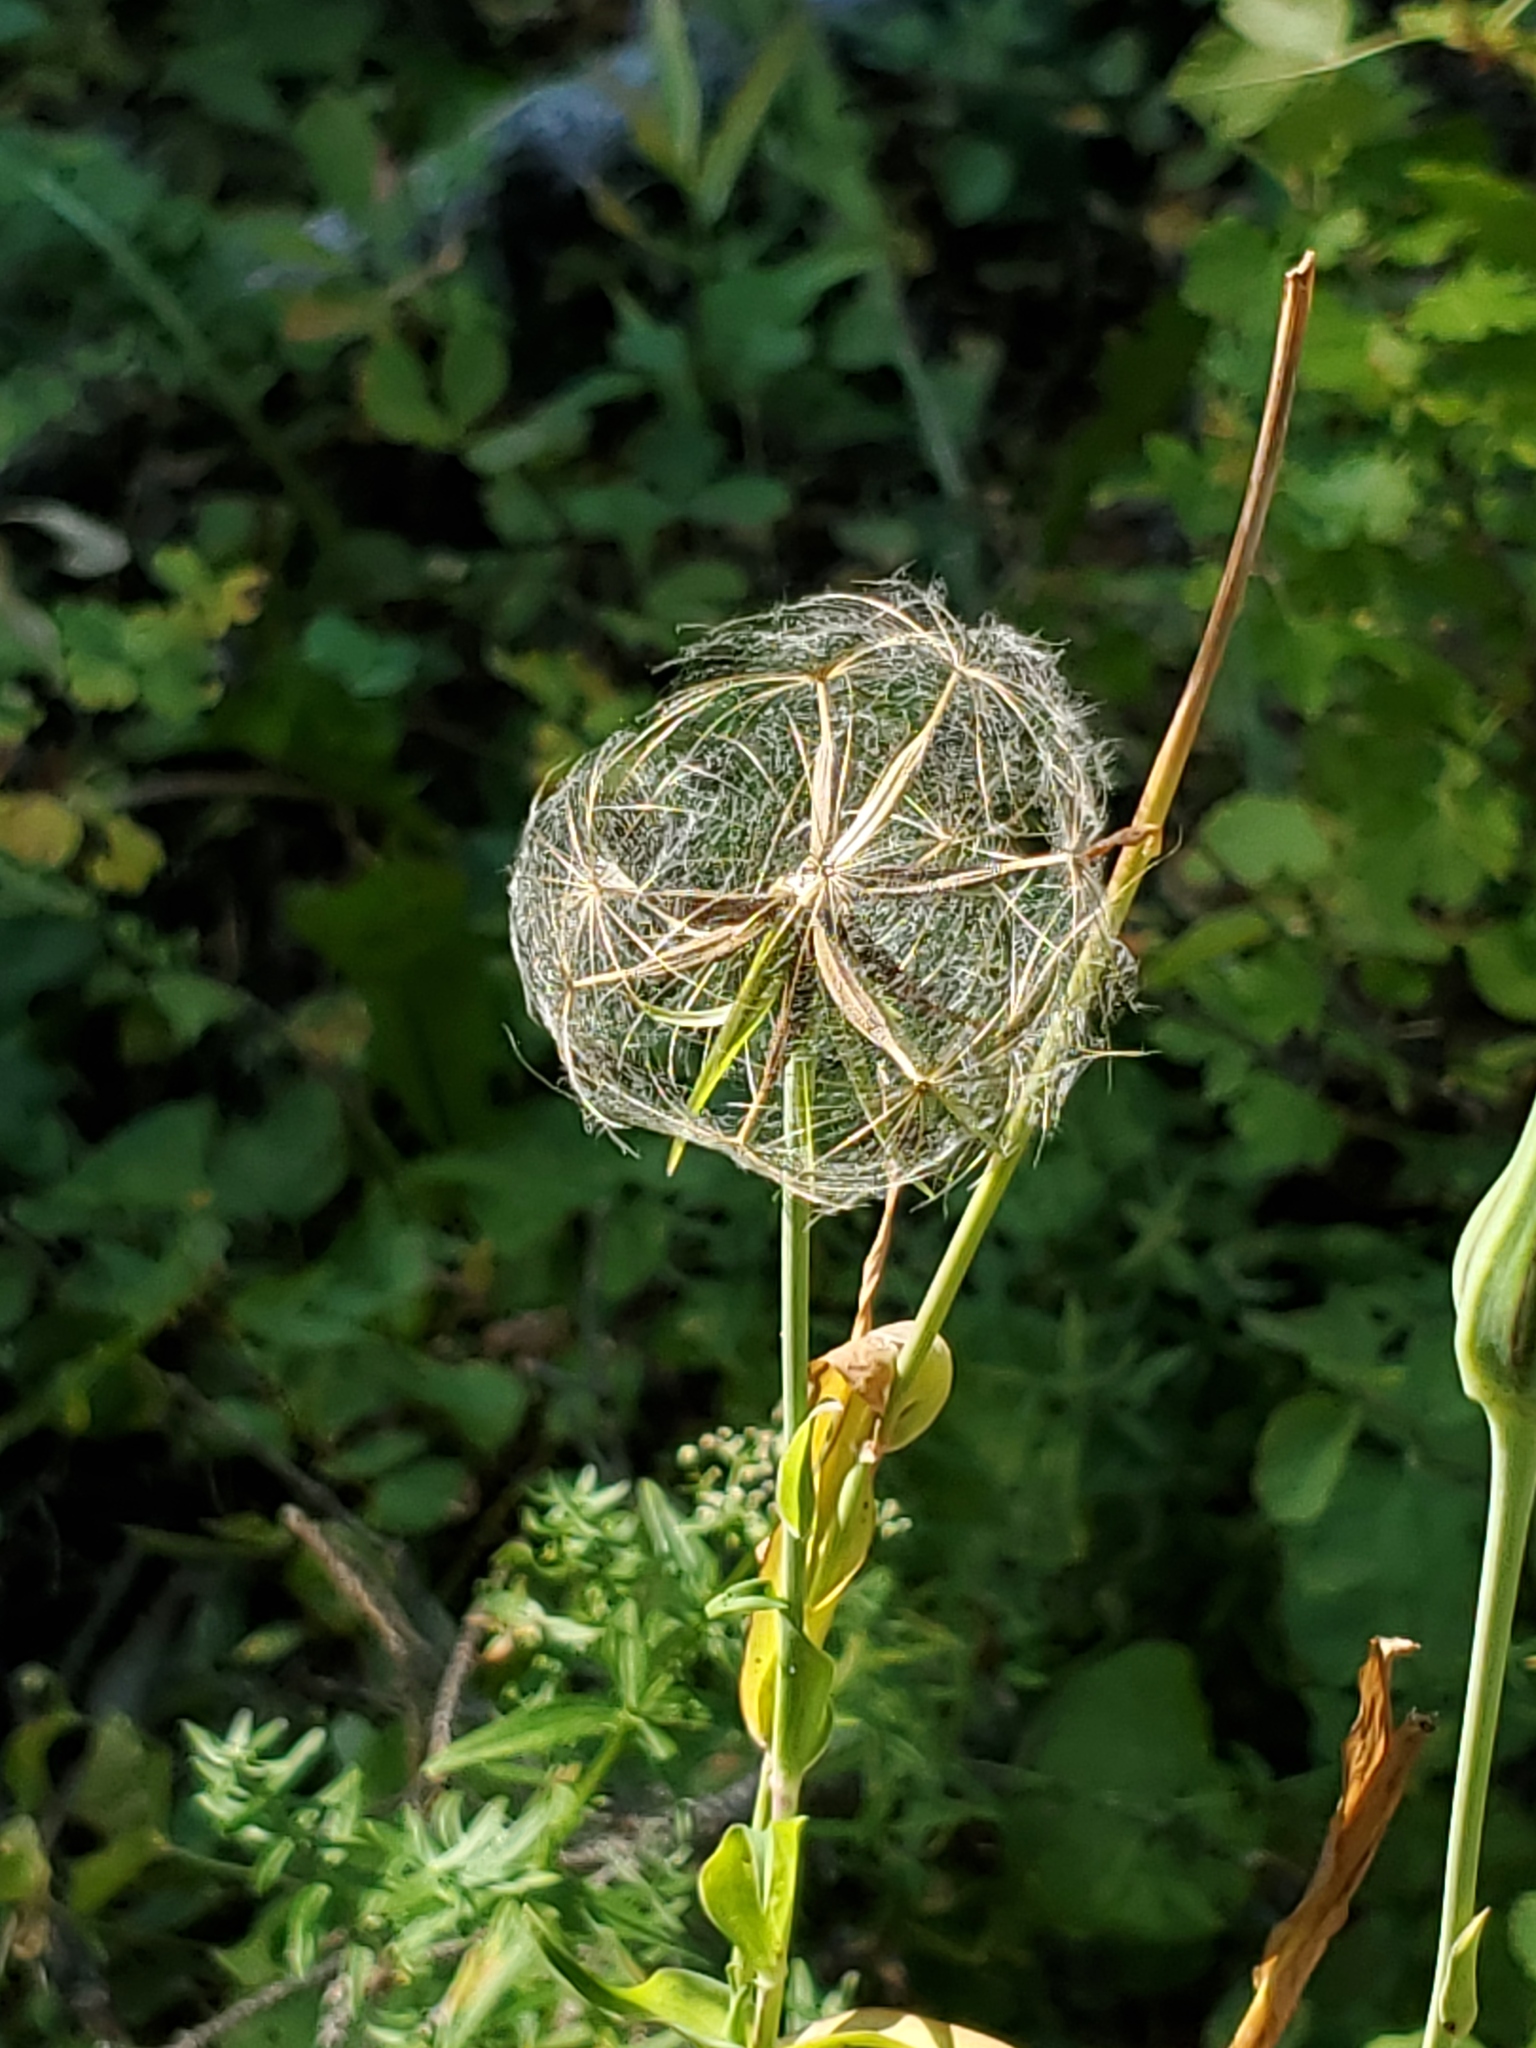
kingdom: Plantae
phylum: Tracheophyta
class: Magnoliopsida
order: Asterales
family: Asteraceae
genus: Tragopogon
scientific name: Tragopogon dubius
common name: Yellow salsify
